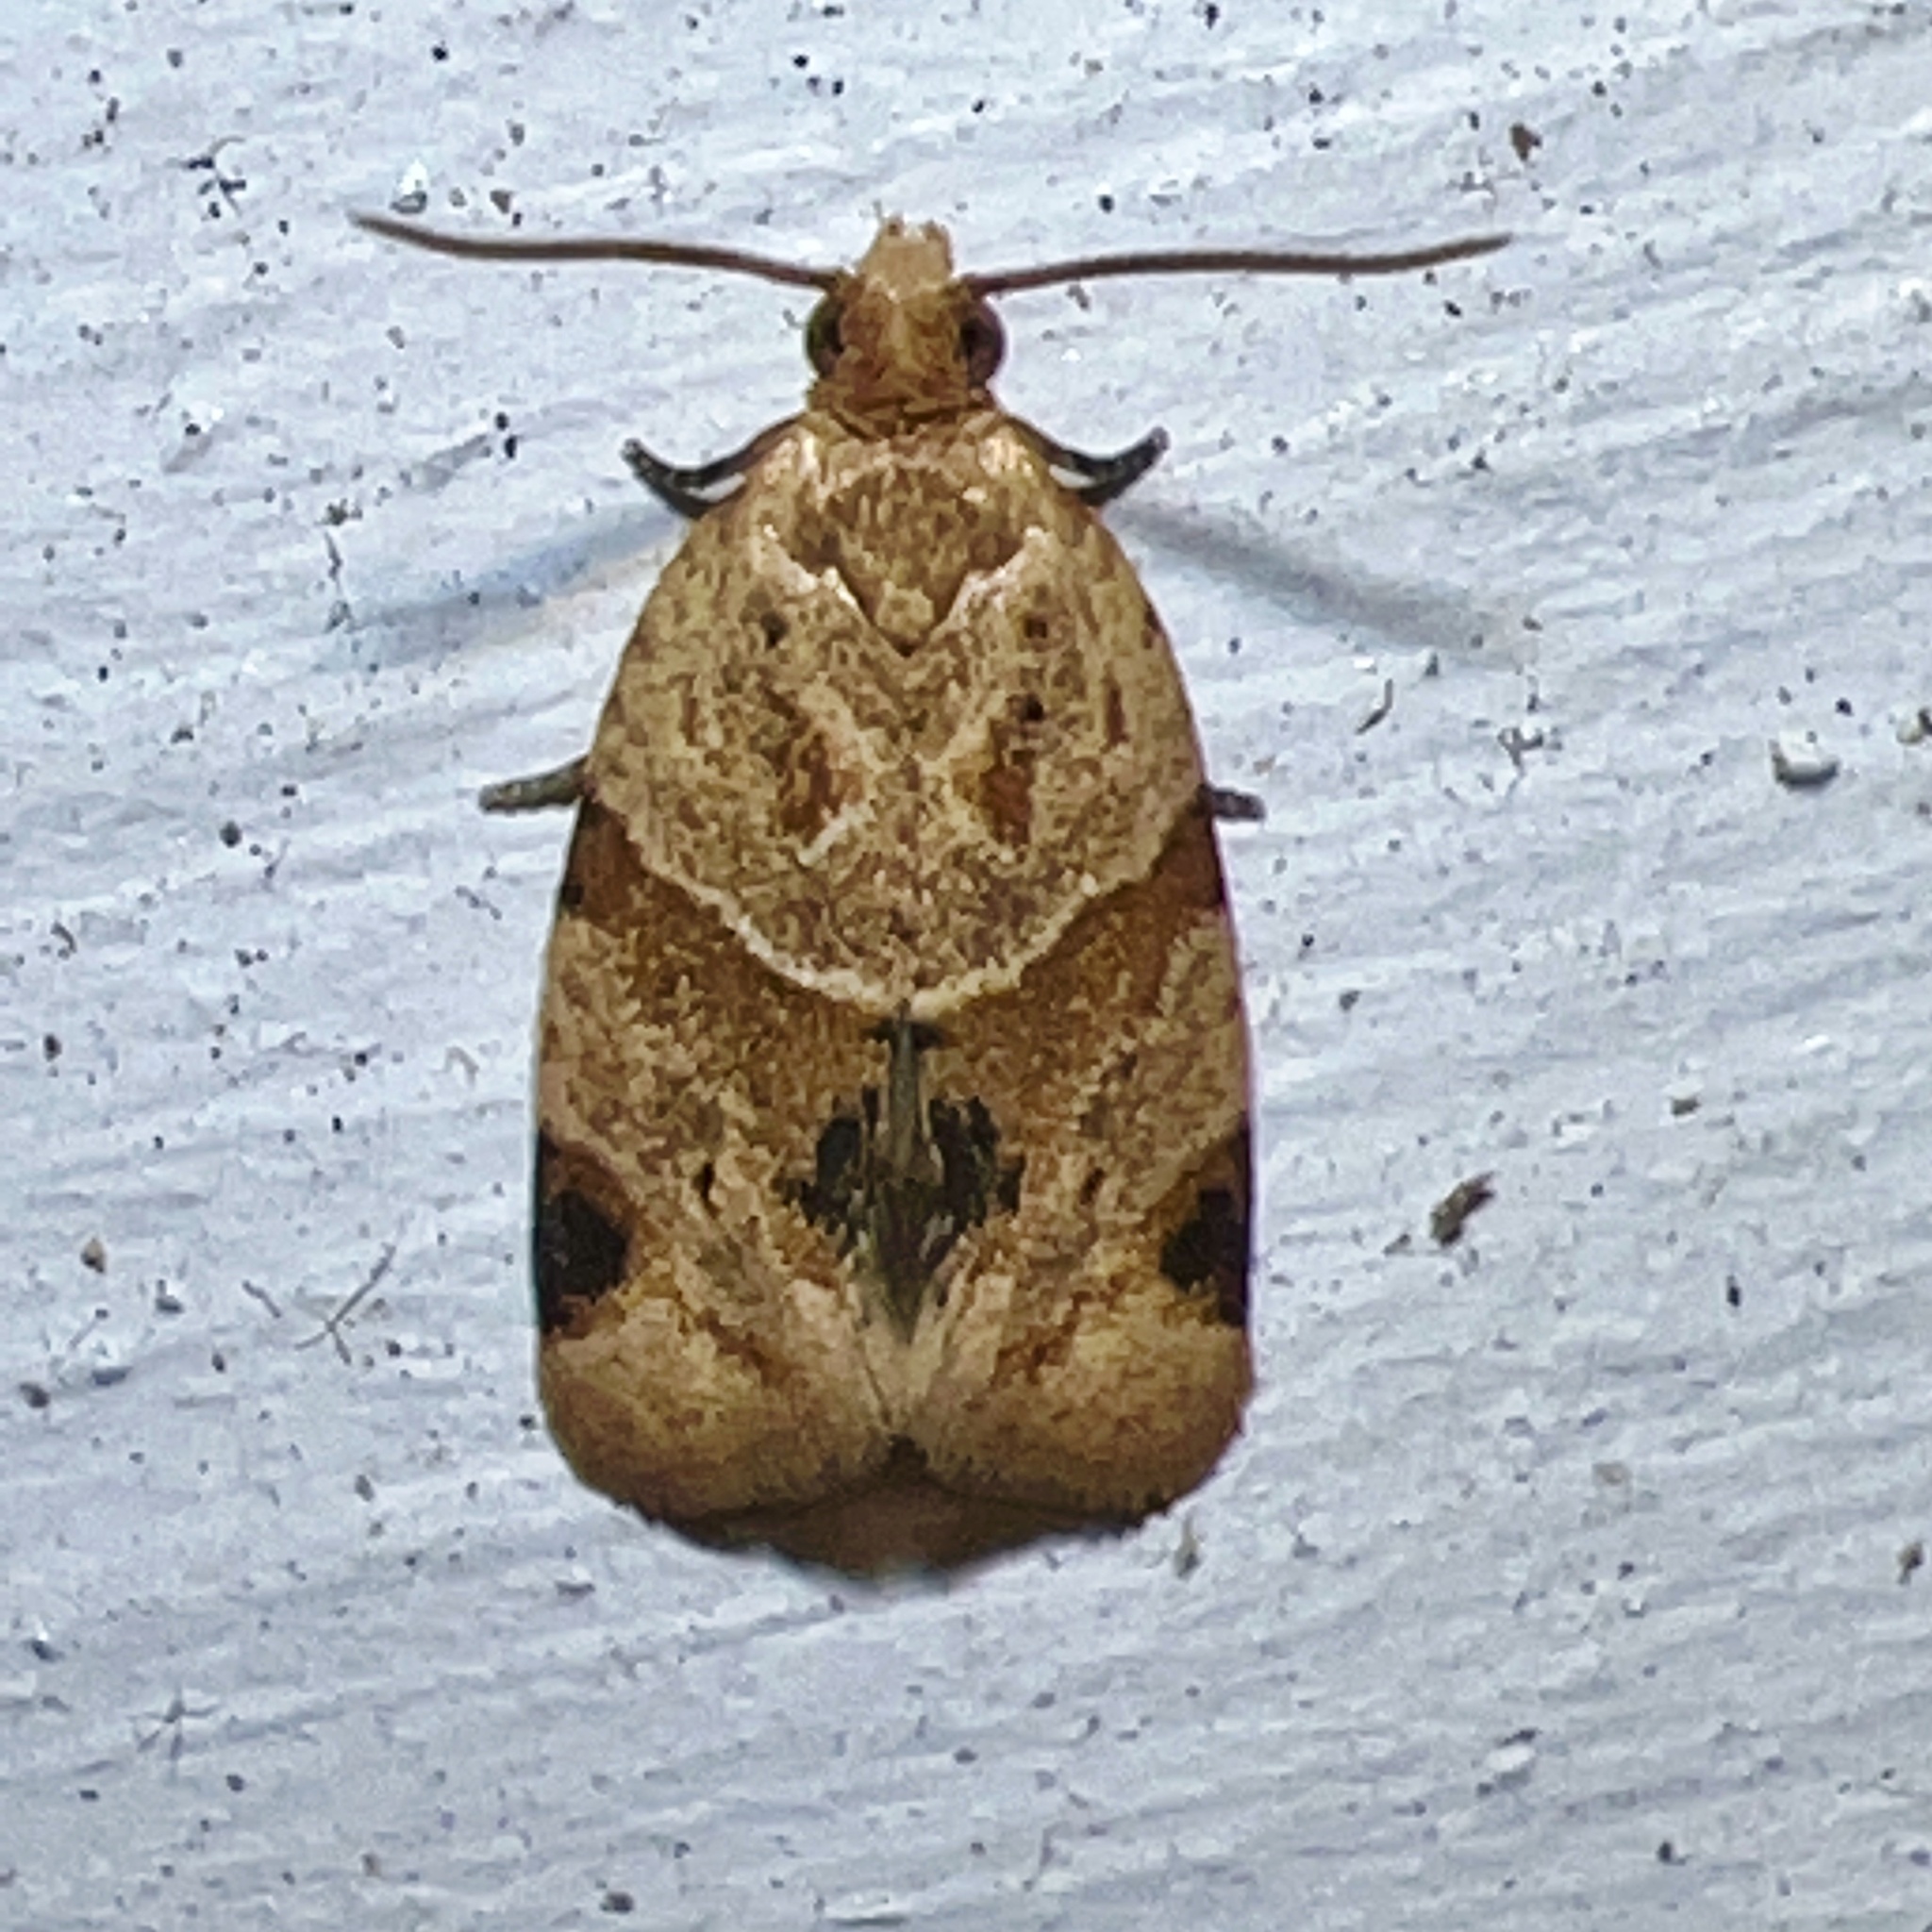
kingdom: Animalia
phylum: Arthropoda
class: Insecta
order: Lepidoptera
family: Tortricidae
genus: Clepsis
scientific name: Clepsis peritana
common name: Garden tortrix
